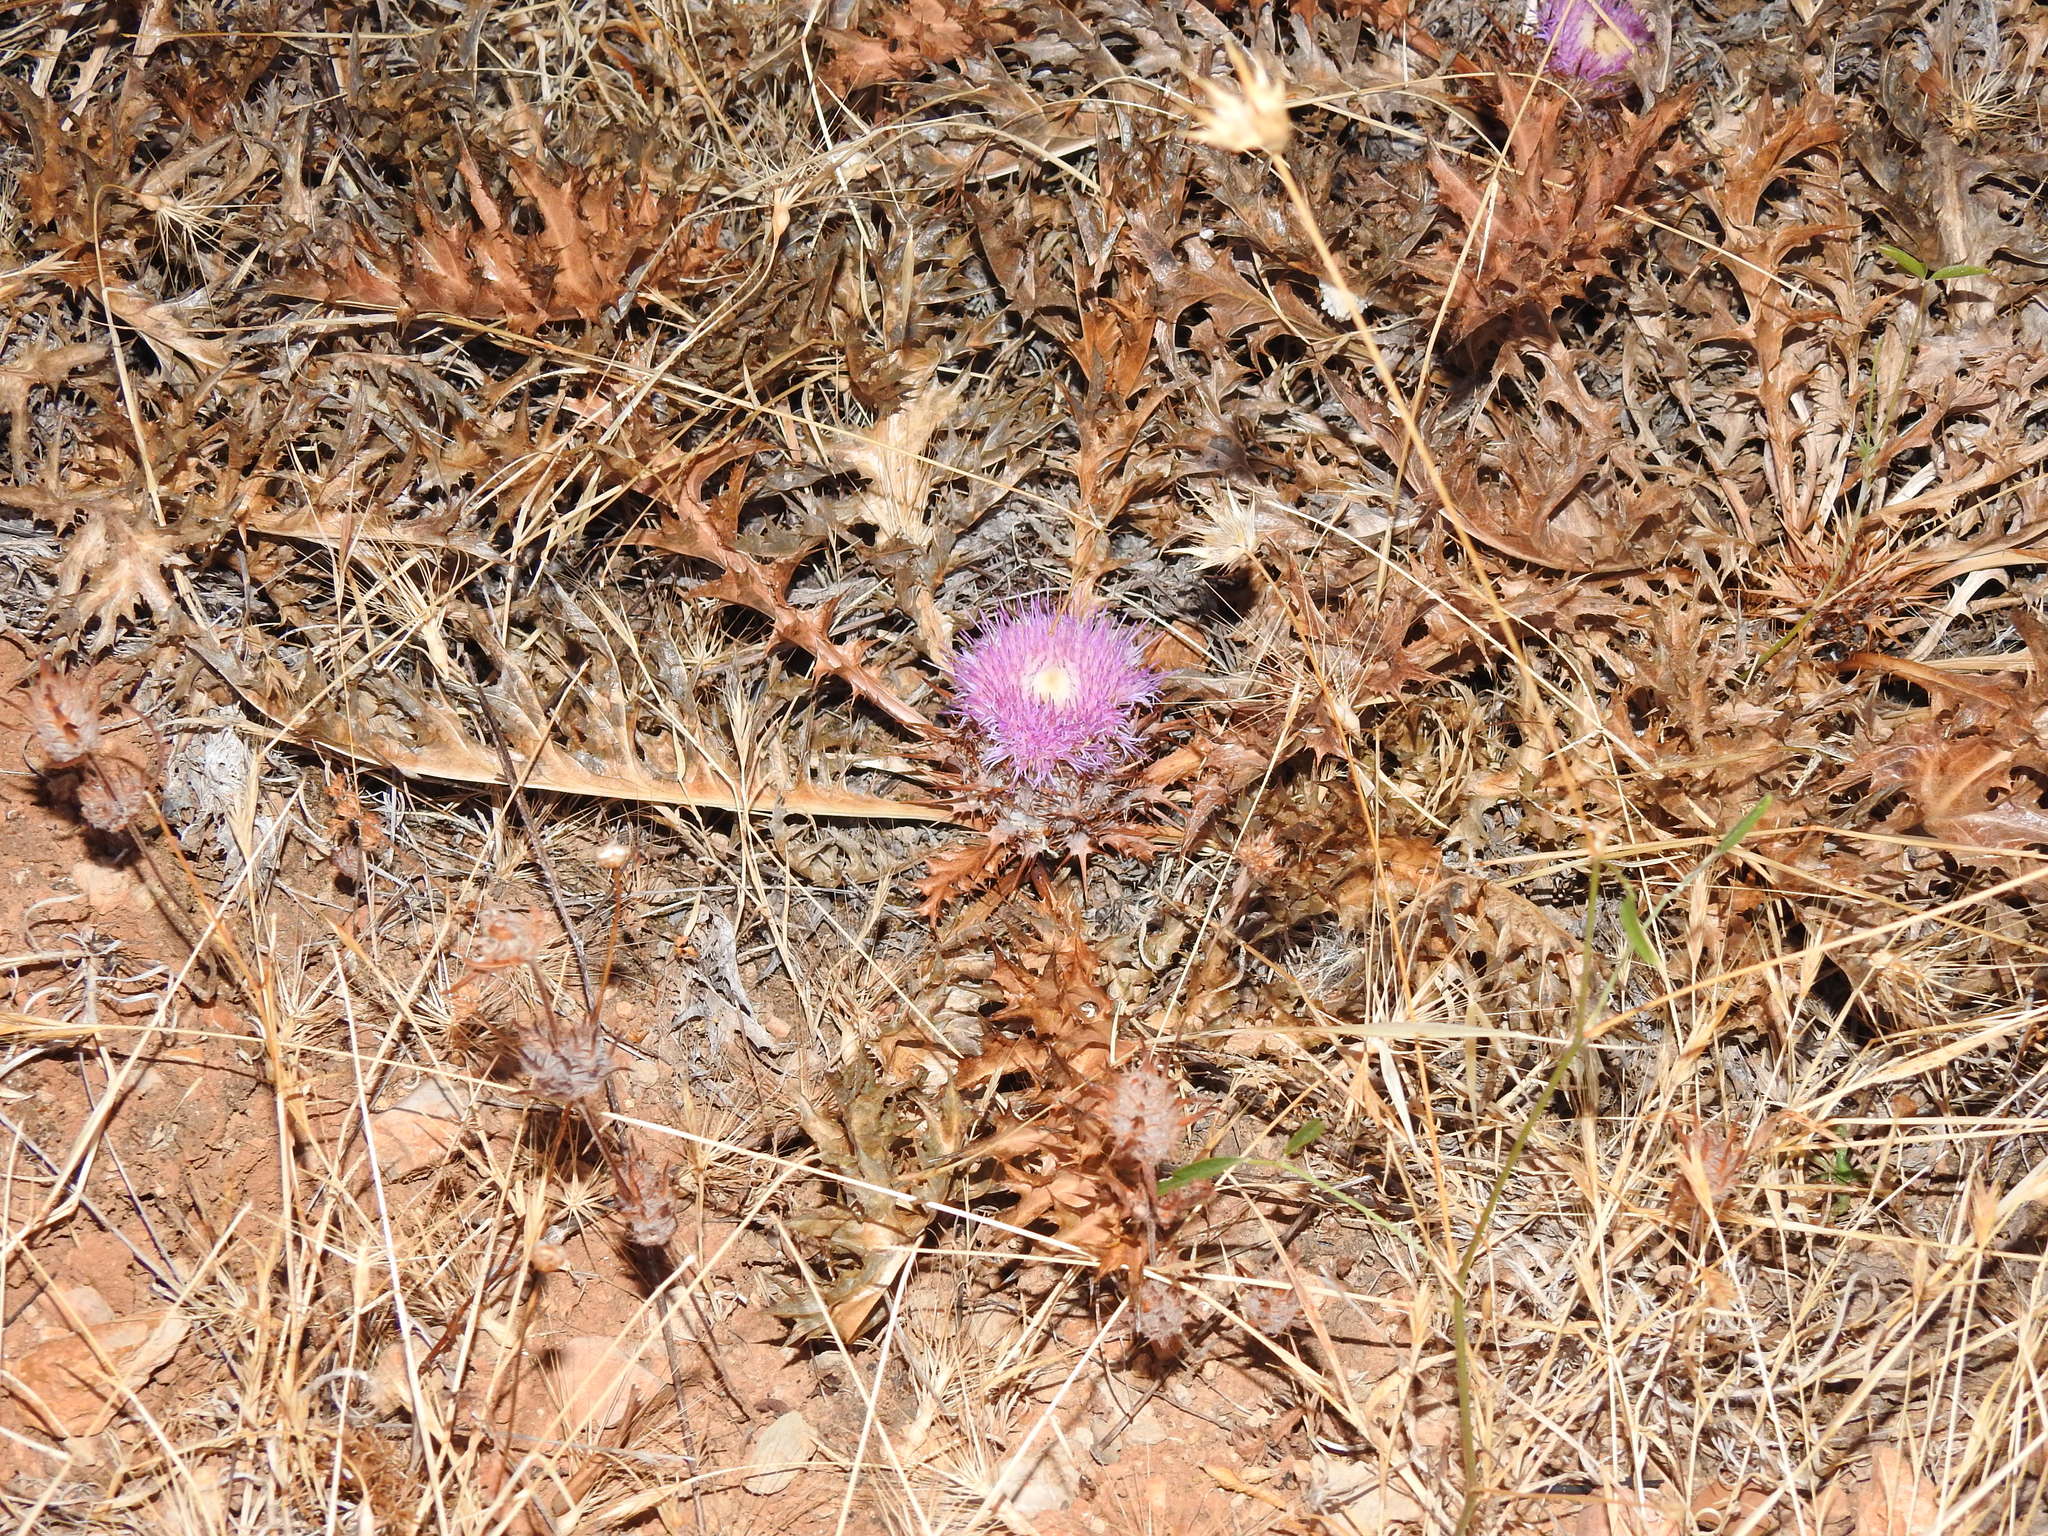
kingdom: Plantae
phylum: Tracheophyta
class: Magnoliopsida
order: Asterales
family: Asteraceae
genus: Chamaeleon
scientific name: Chamaeleon gummifer
